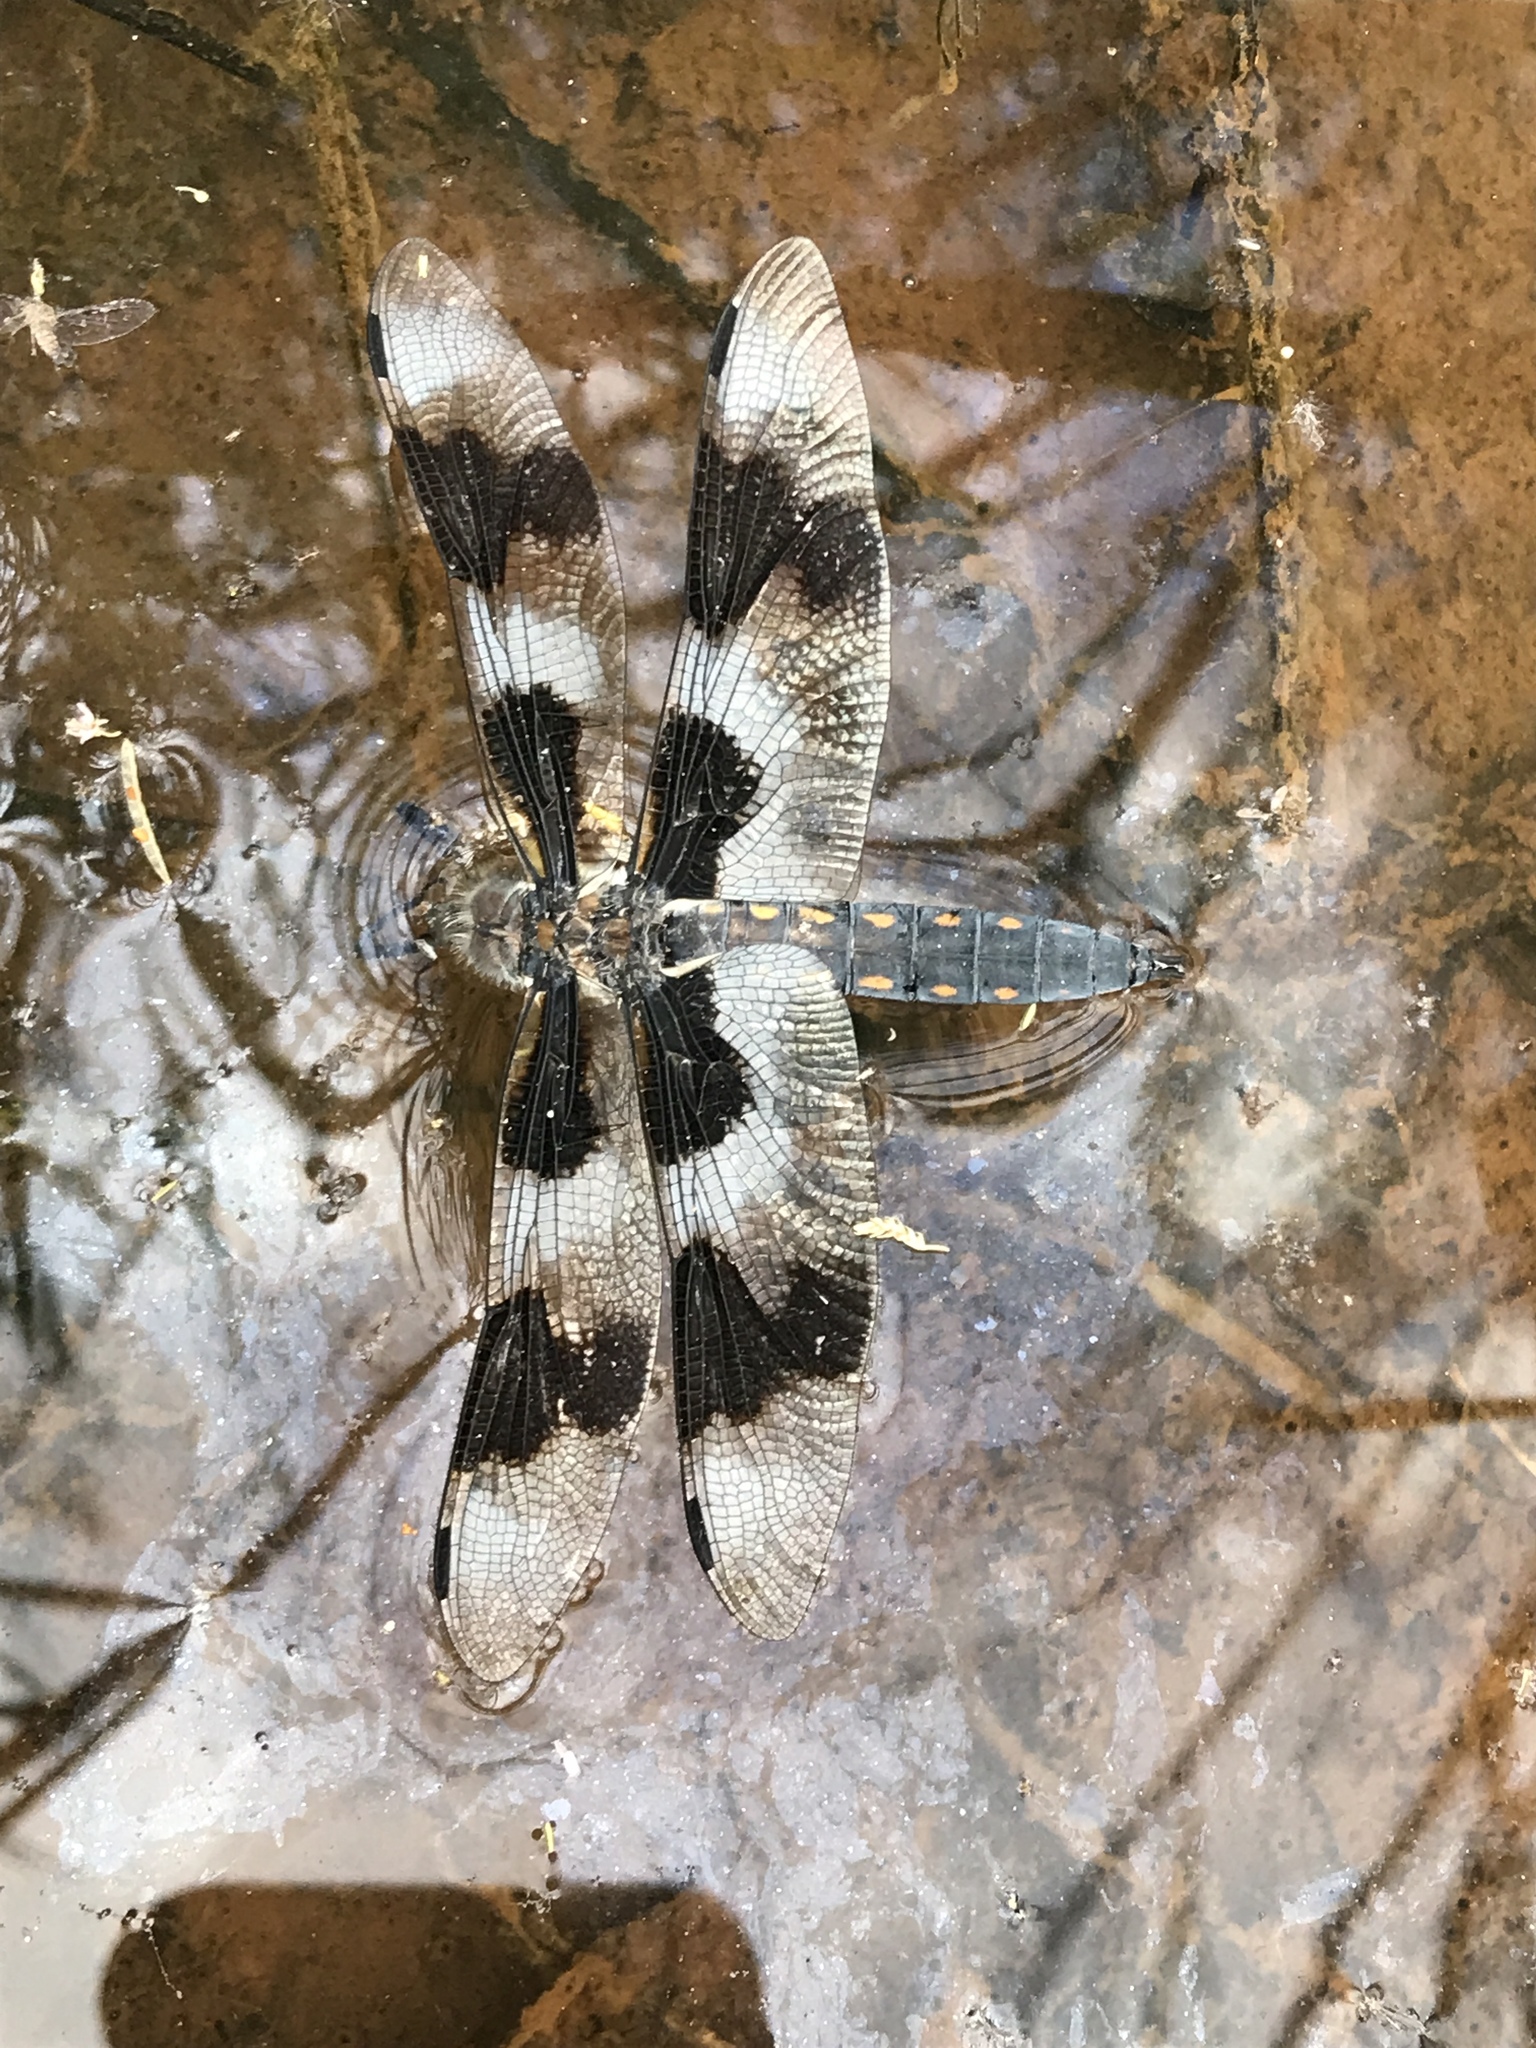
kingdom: Animalia
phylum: Arthropoda
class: Insecta
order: Odonata
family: Libellulidae
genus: Libellula
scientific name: Libellula forensis
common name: Eight-spotted skimmer
